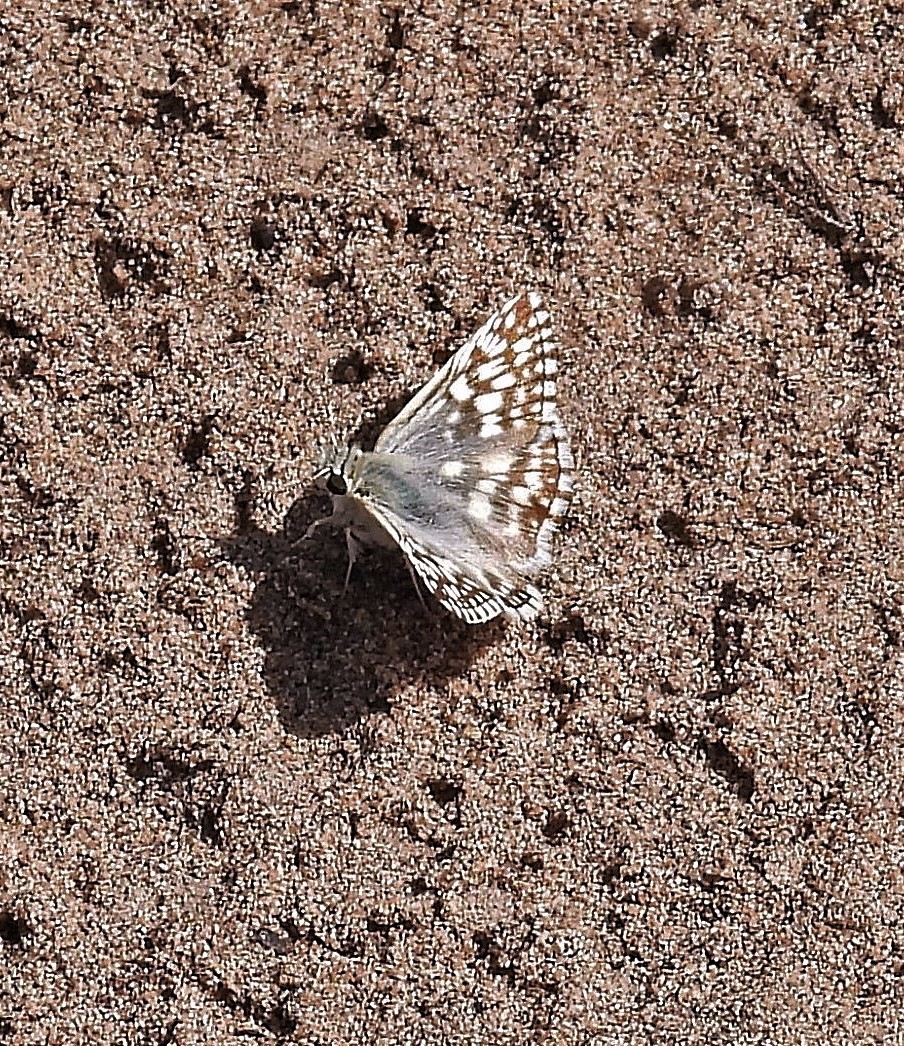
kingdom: Animalia
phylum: Arthropoda
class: Insecta
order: Lepidoptera
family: Hesperiidae
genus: Heliopetes
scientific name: Heliopetes americanus
